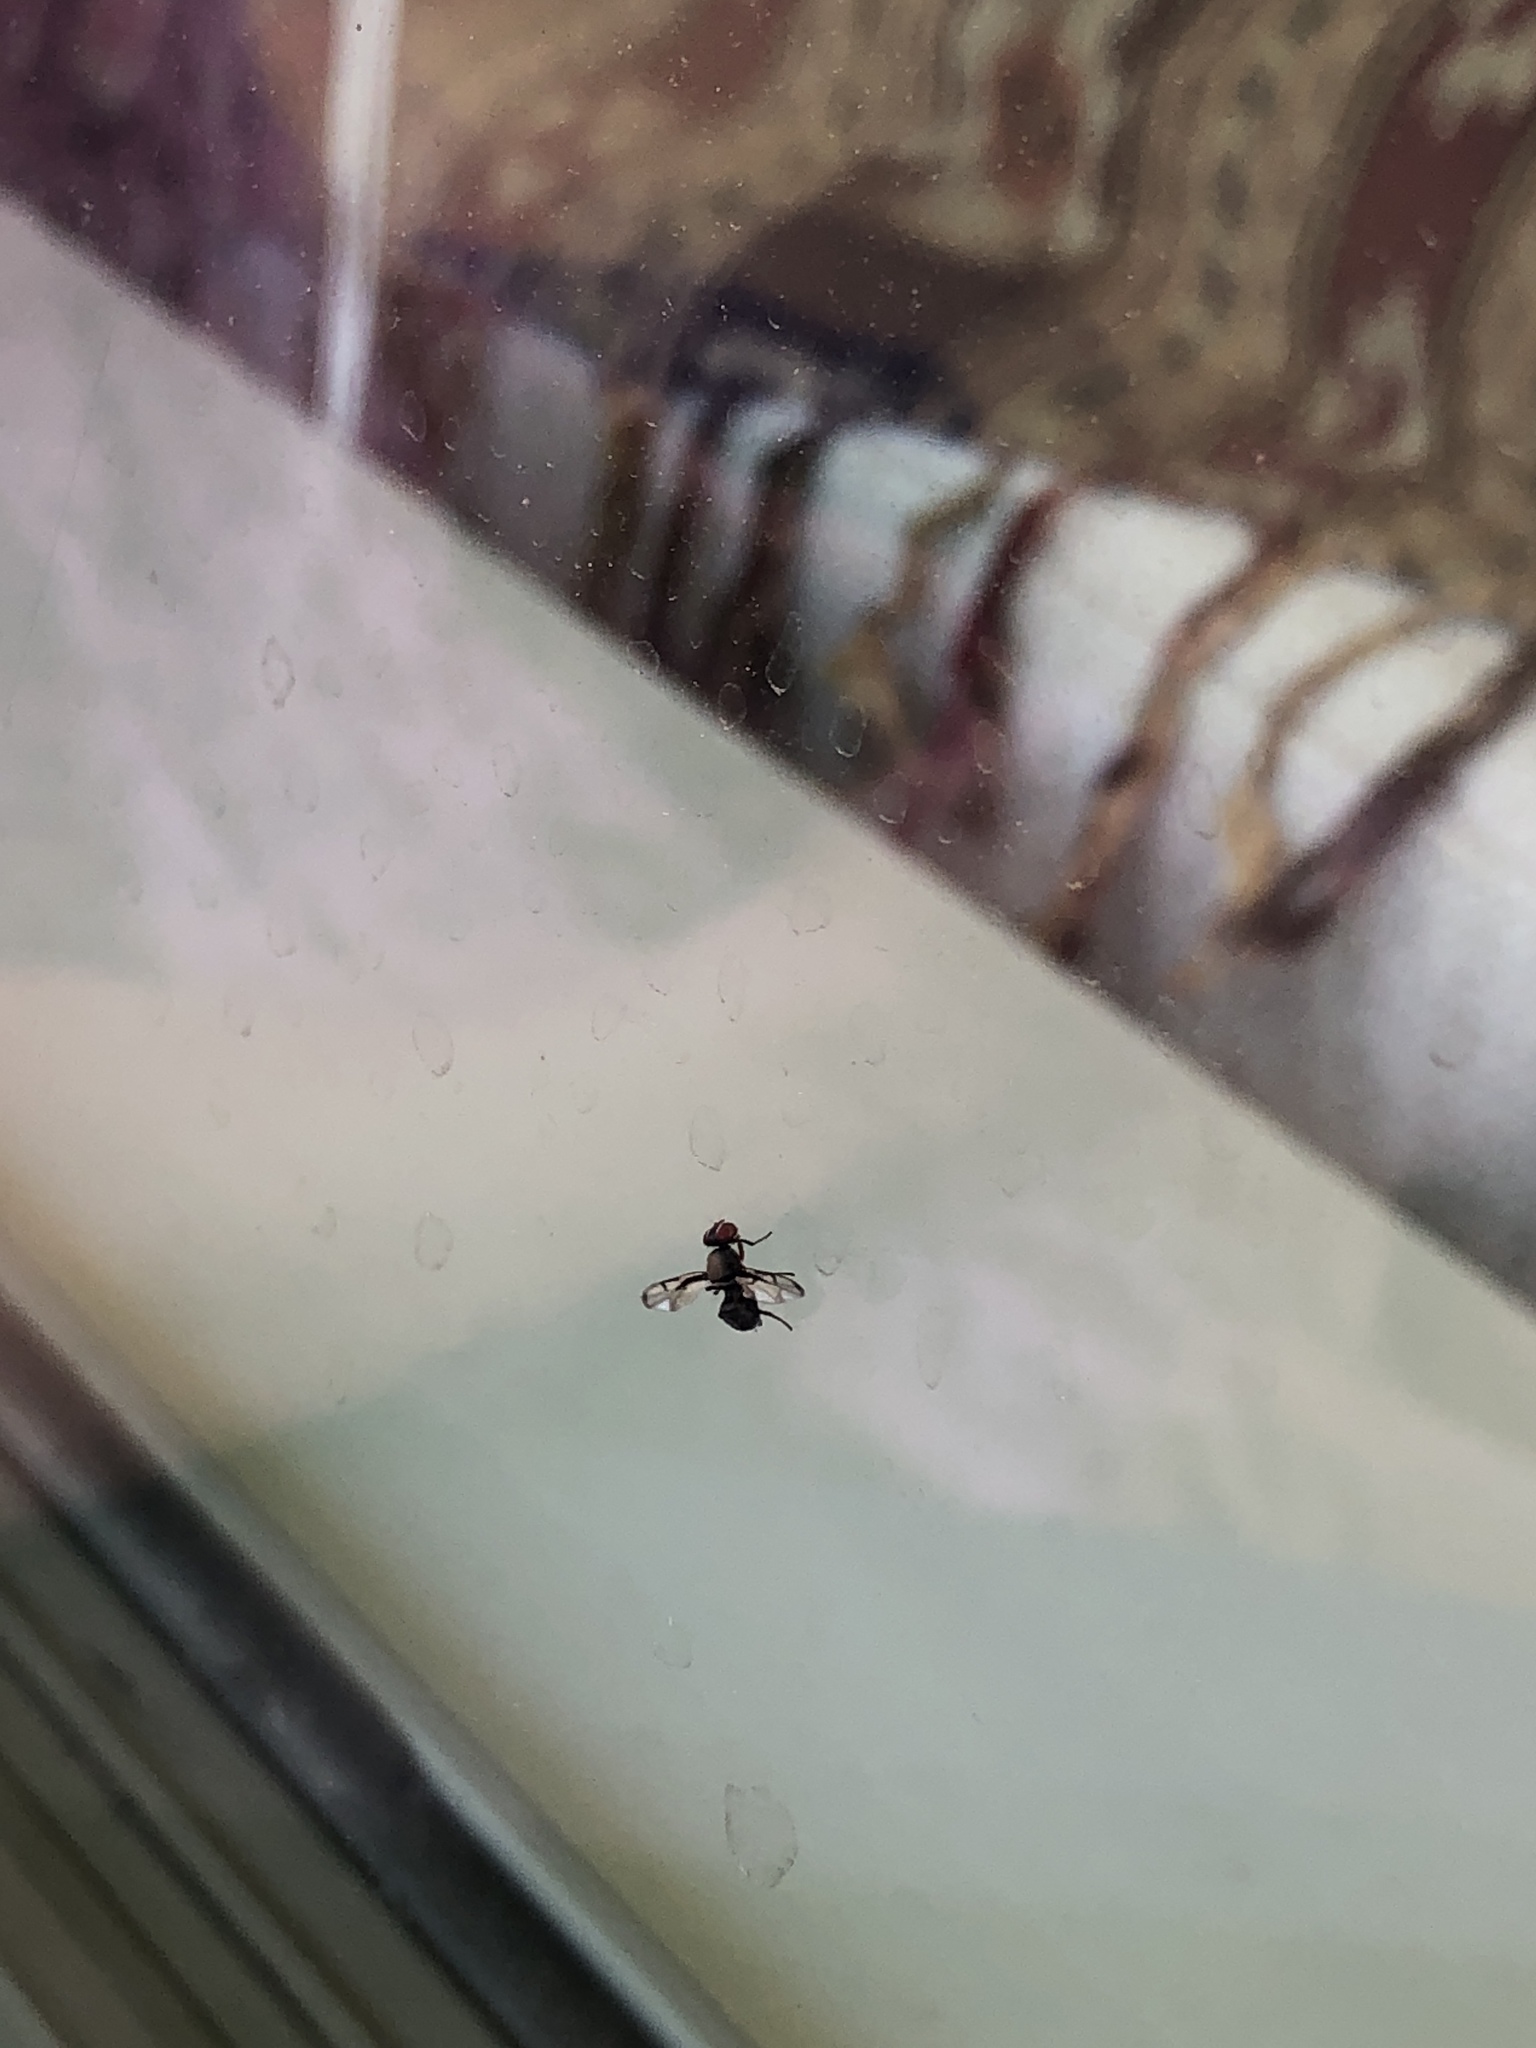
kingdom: Animalia
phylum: Arthropoda
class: Insecta
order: Diptera
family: Platystomatidae
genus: Pogonortalis
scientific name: Pogonortalis doclea
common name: Boatman fly
